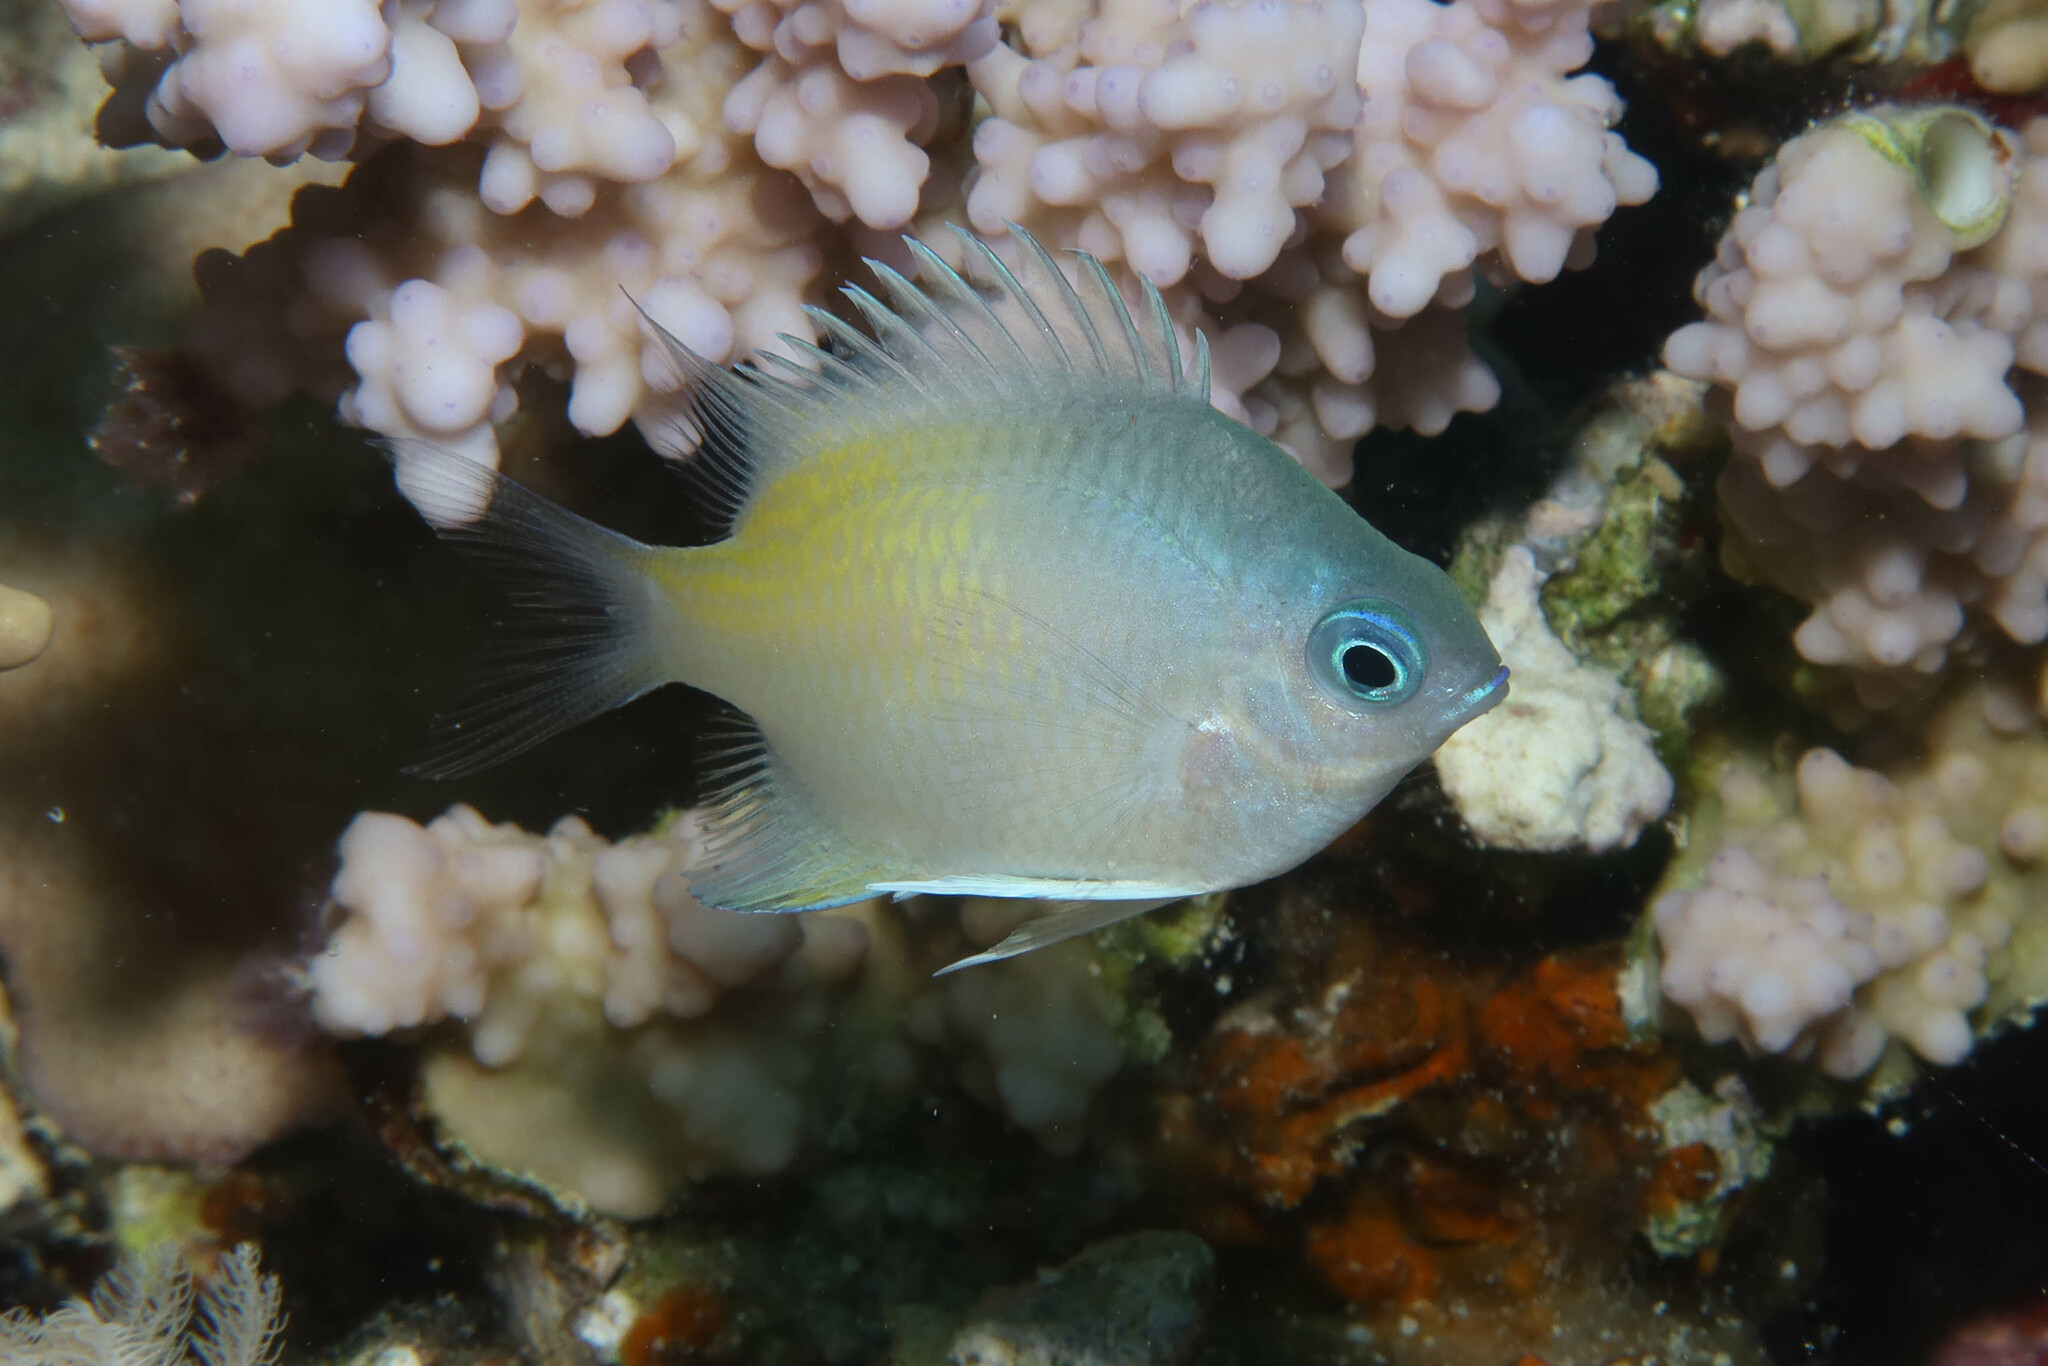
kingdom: Animalia
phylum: Chordata
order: Perciformes
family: Pomacentridae
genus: Amblyglyphidodon
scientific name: Amblyglyphidodon flavilatus
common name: Yellowfin damsel
